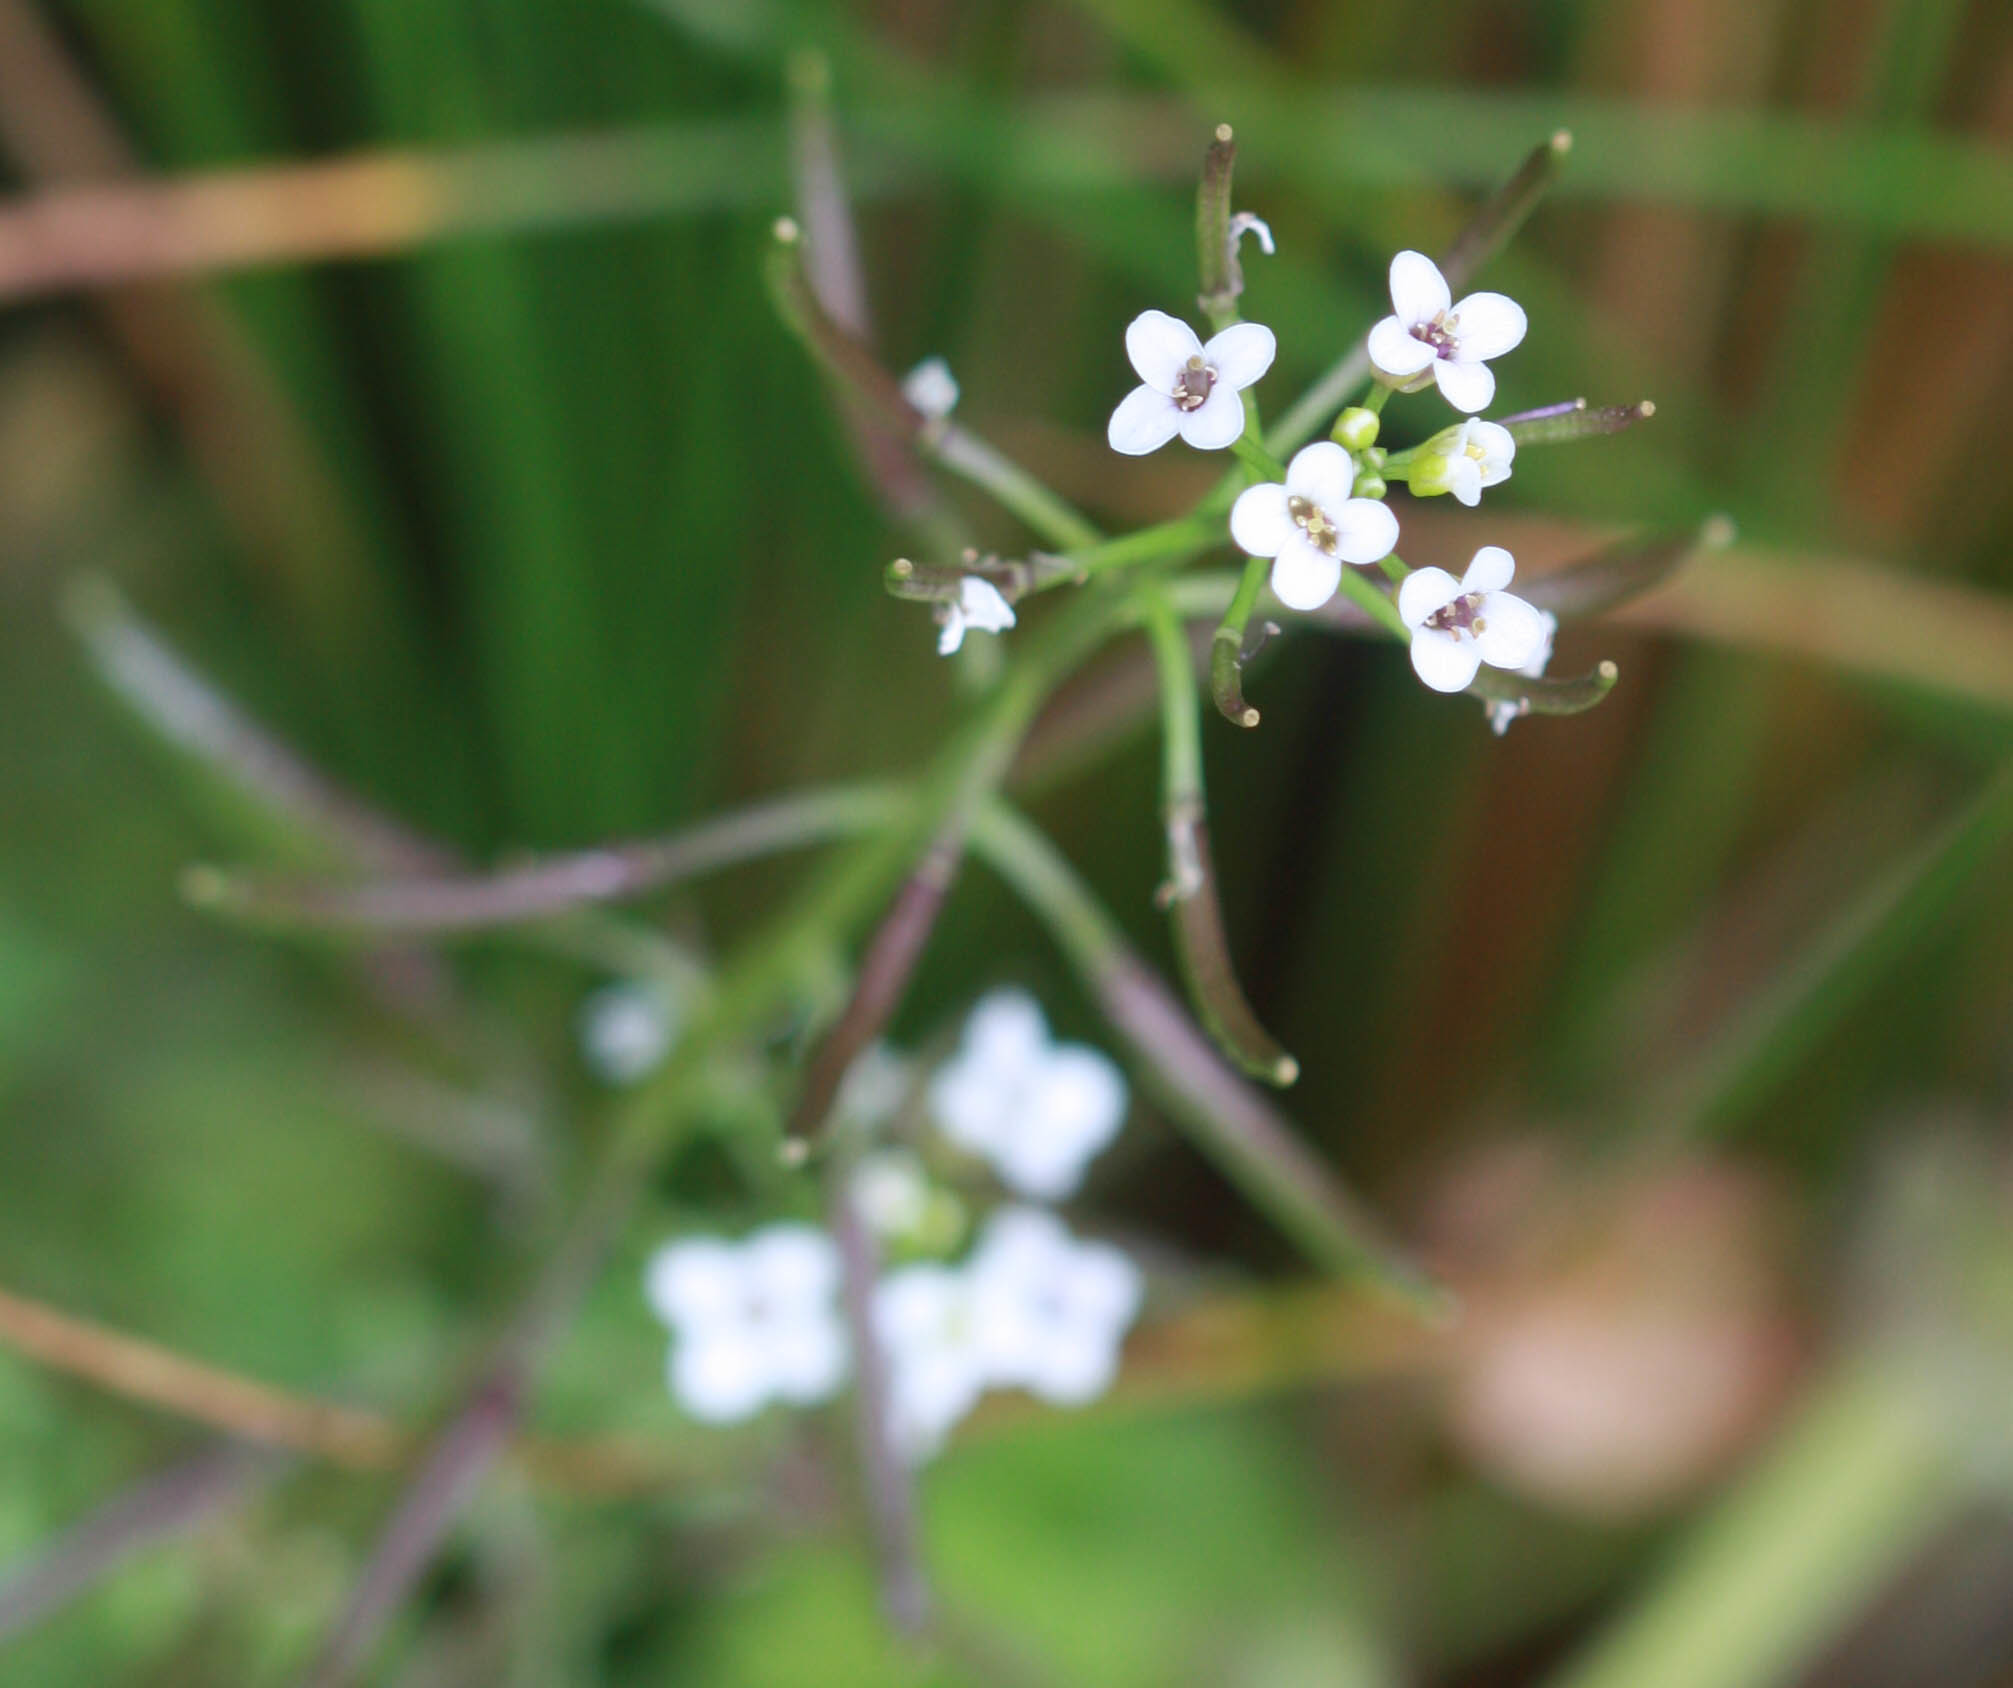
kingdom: Plantae
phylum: Tracheophyta
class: Magnoliopsida
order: Brassicales
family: Brassicaceae
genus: Nasturtium
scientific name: Nasturtium officinale
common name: Watercress
